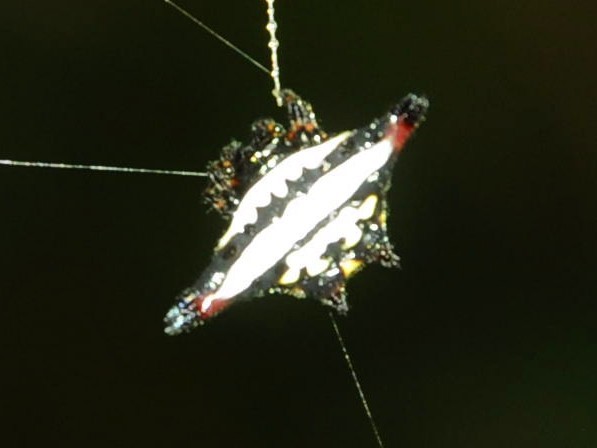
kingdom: Animalia
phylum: Arthropoda
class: Arachnida
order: Araneae
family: Araneidae
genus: Gasteracantha
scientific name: Gasteracantha geminata
